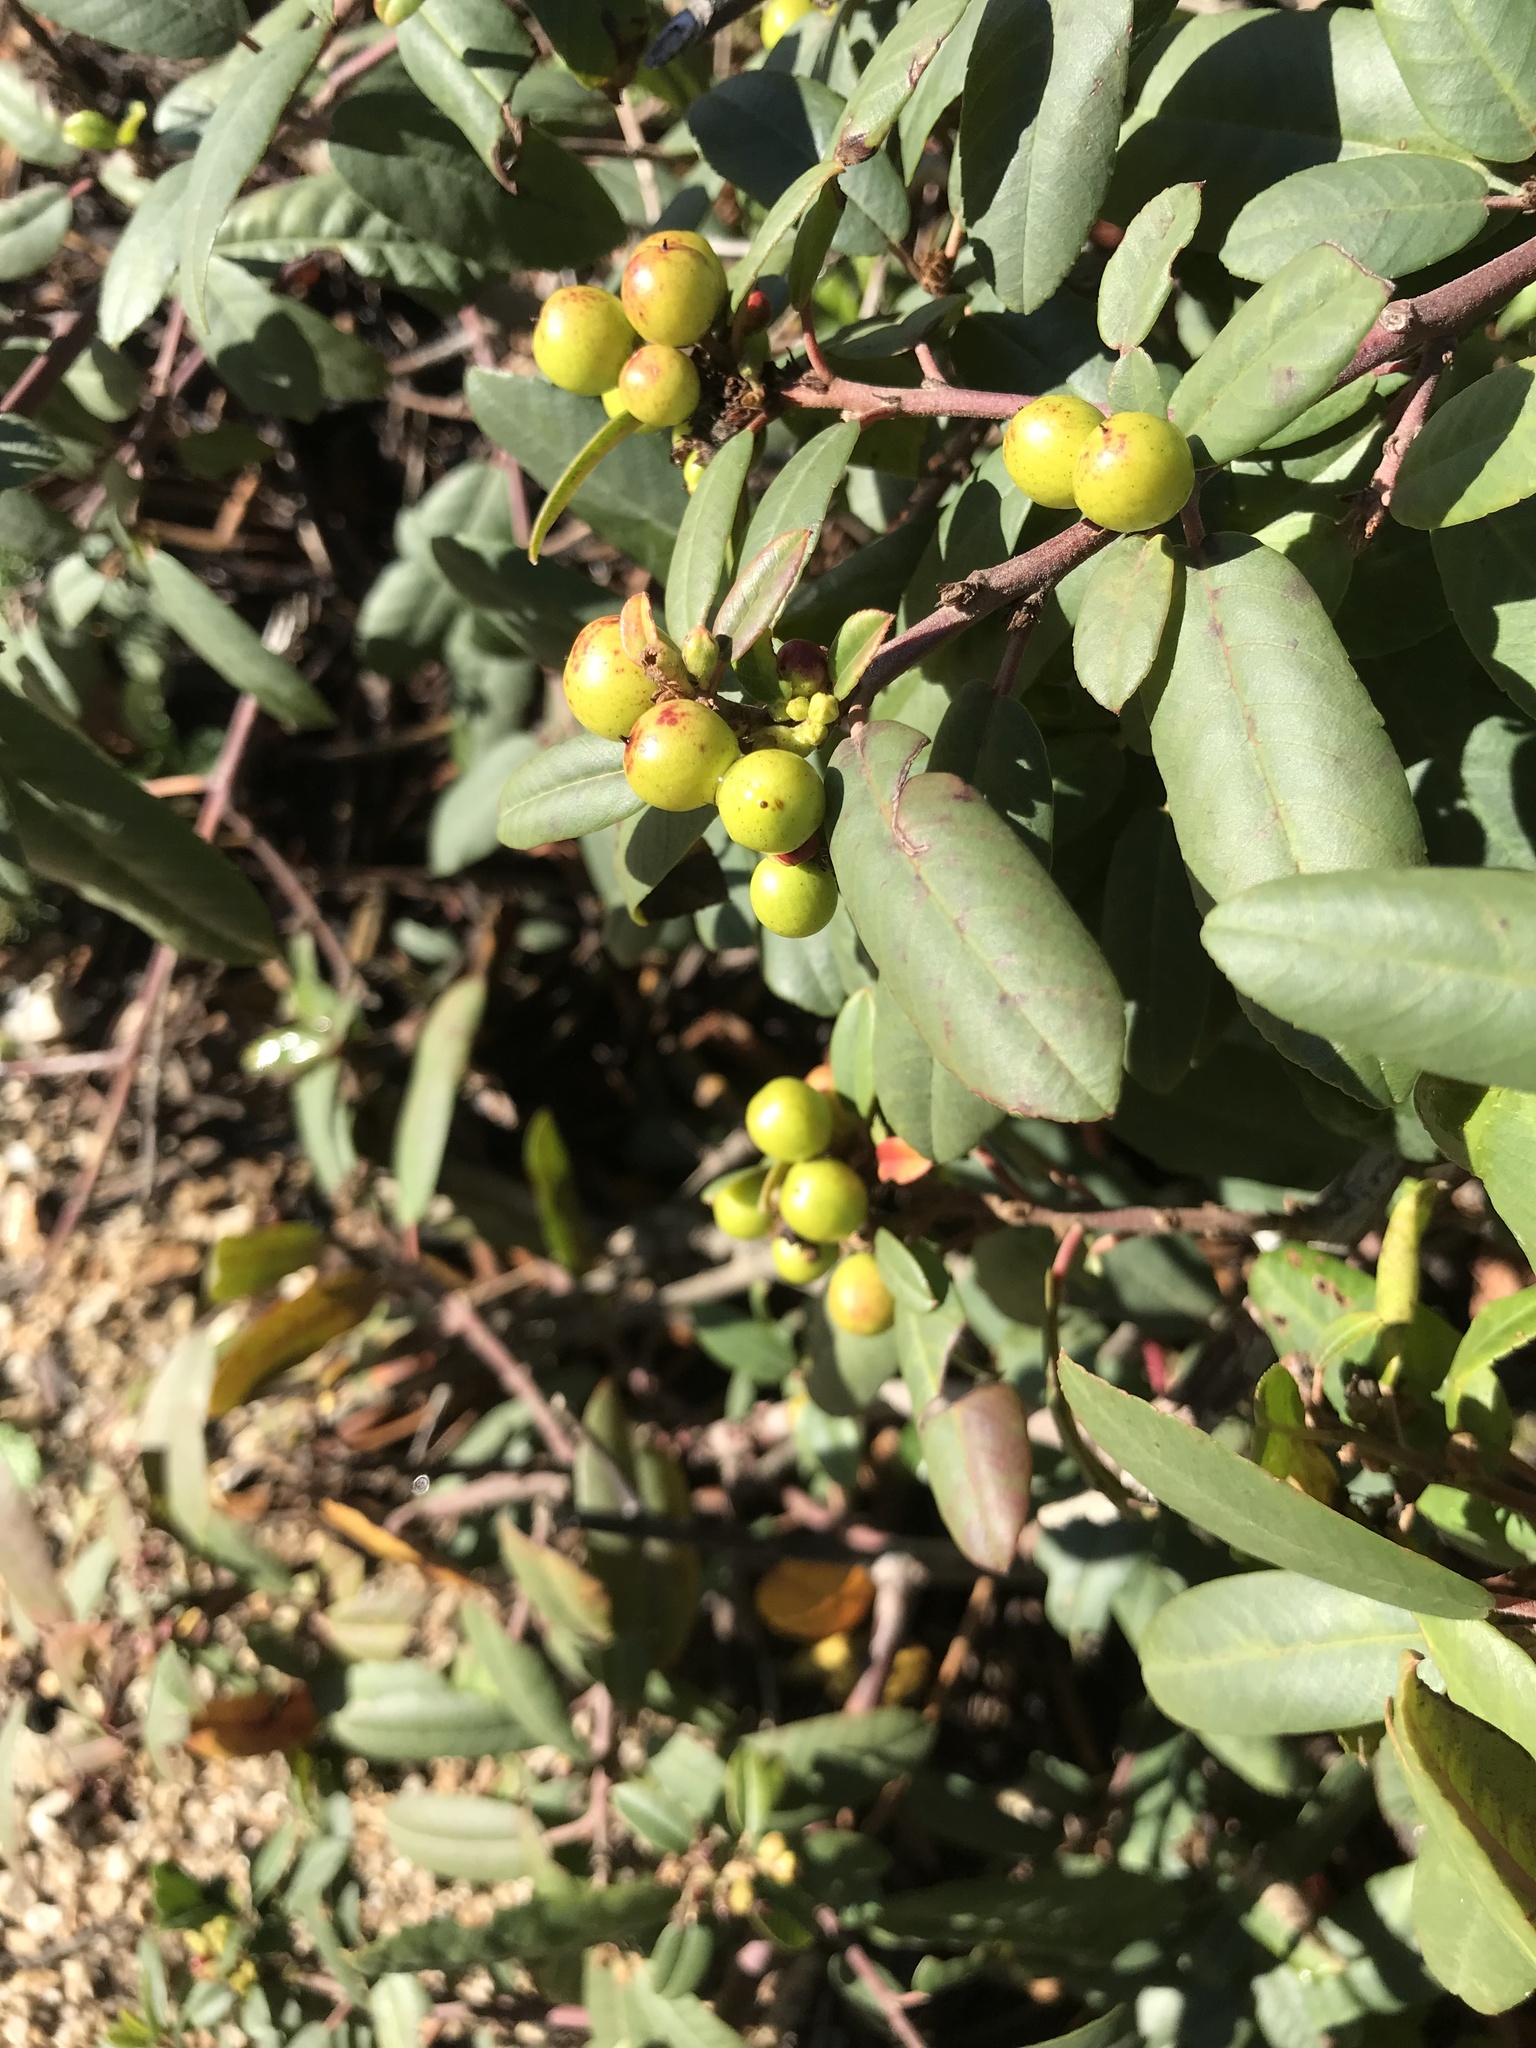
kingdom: Plantae
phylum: Tracheophyta
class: Magnoliopsida
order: Rosales
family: Rhamnaceae
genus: Frangula
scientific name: Frangula californica
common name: California buckthorn
